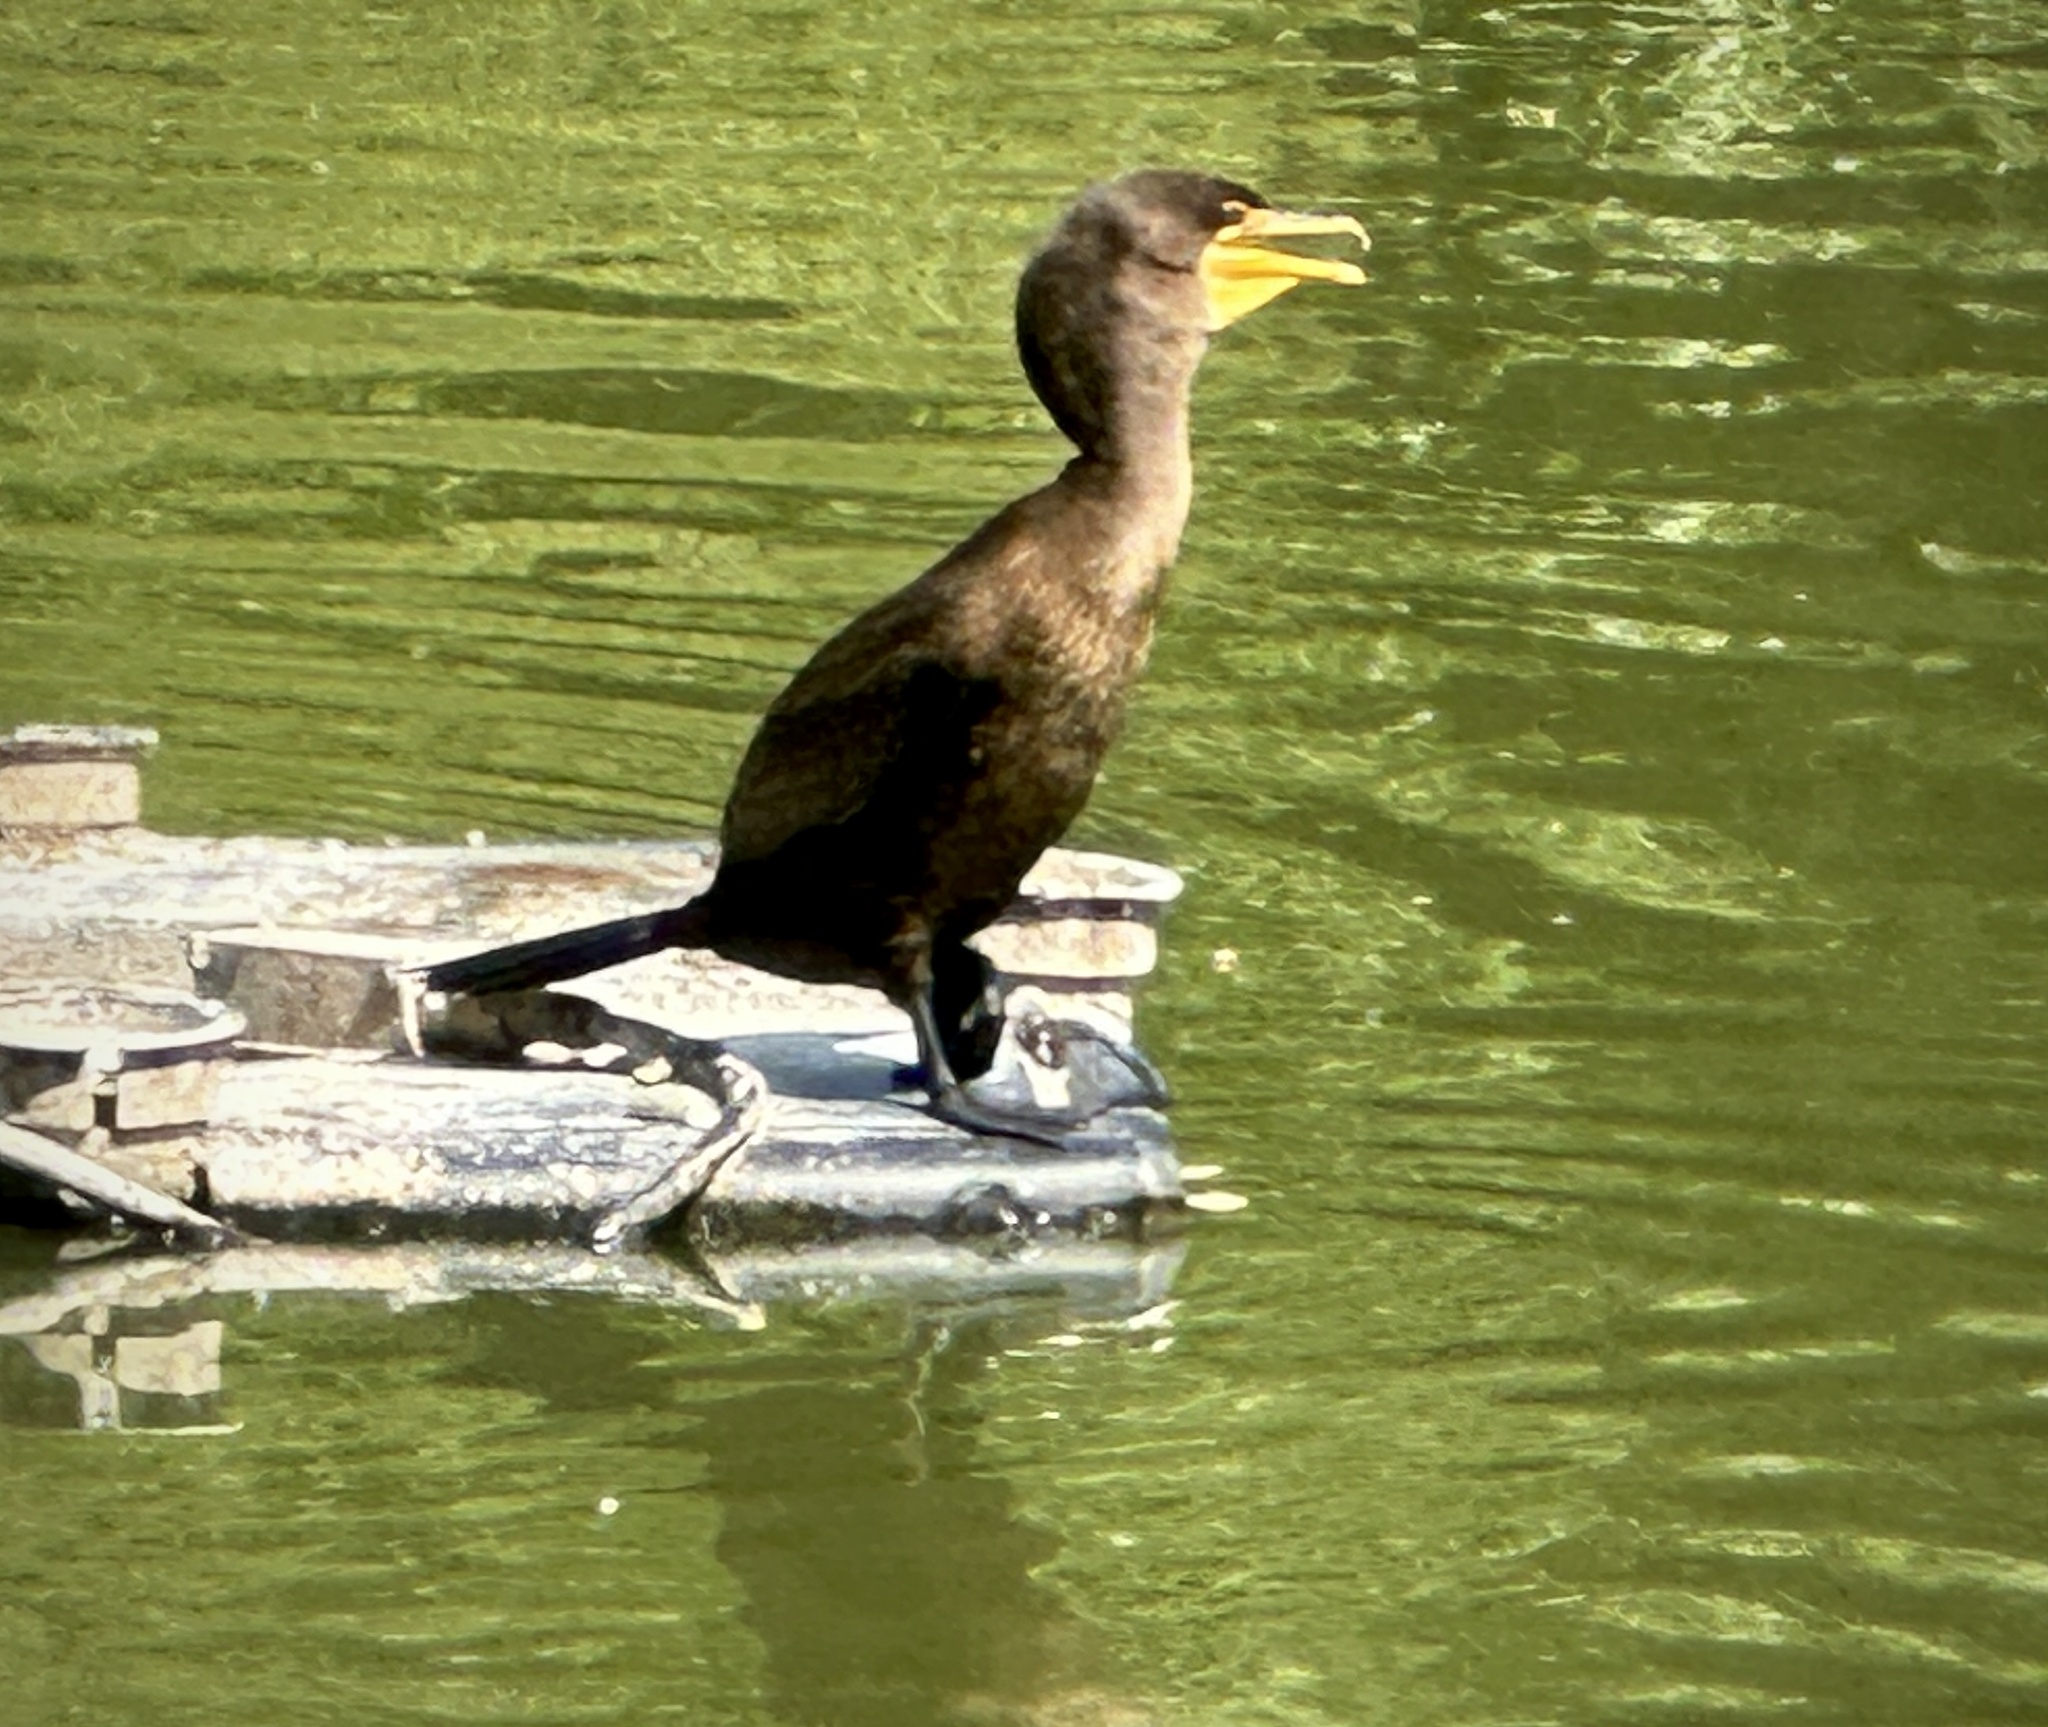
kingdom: Animalia
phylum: Chordata
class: Aves
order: Suliformes
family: Phalacrocoracidae
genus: Phalacrocorax
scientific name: Phalacrocorax auritus
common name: Double-crested cormorant
